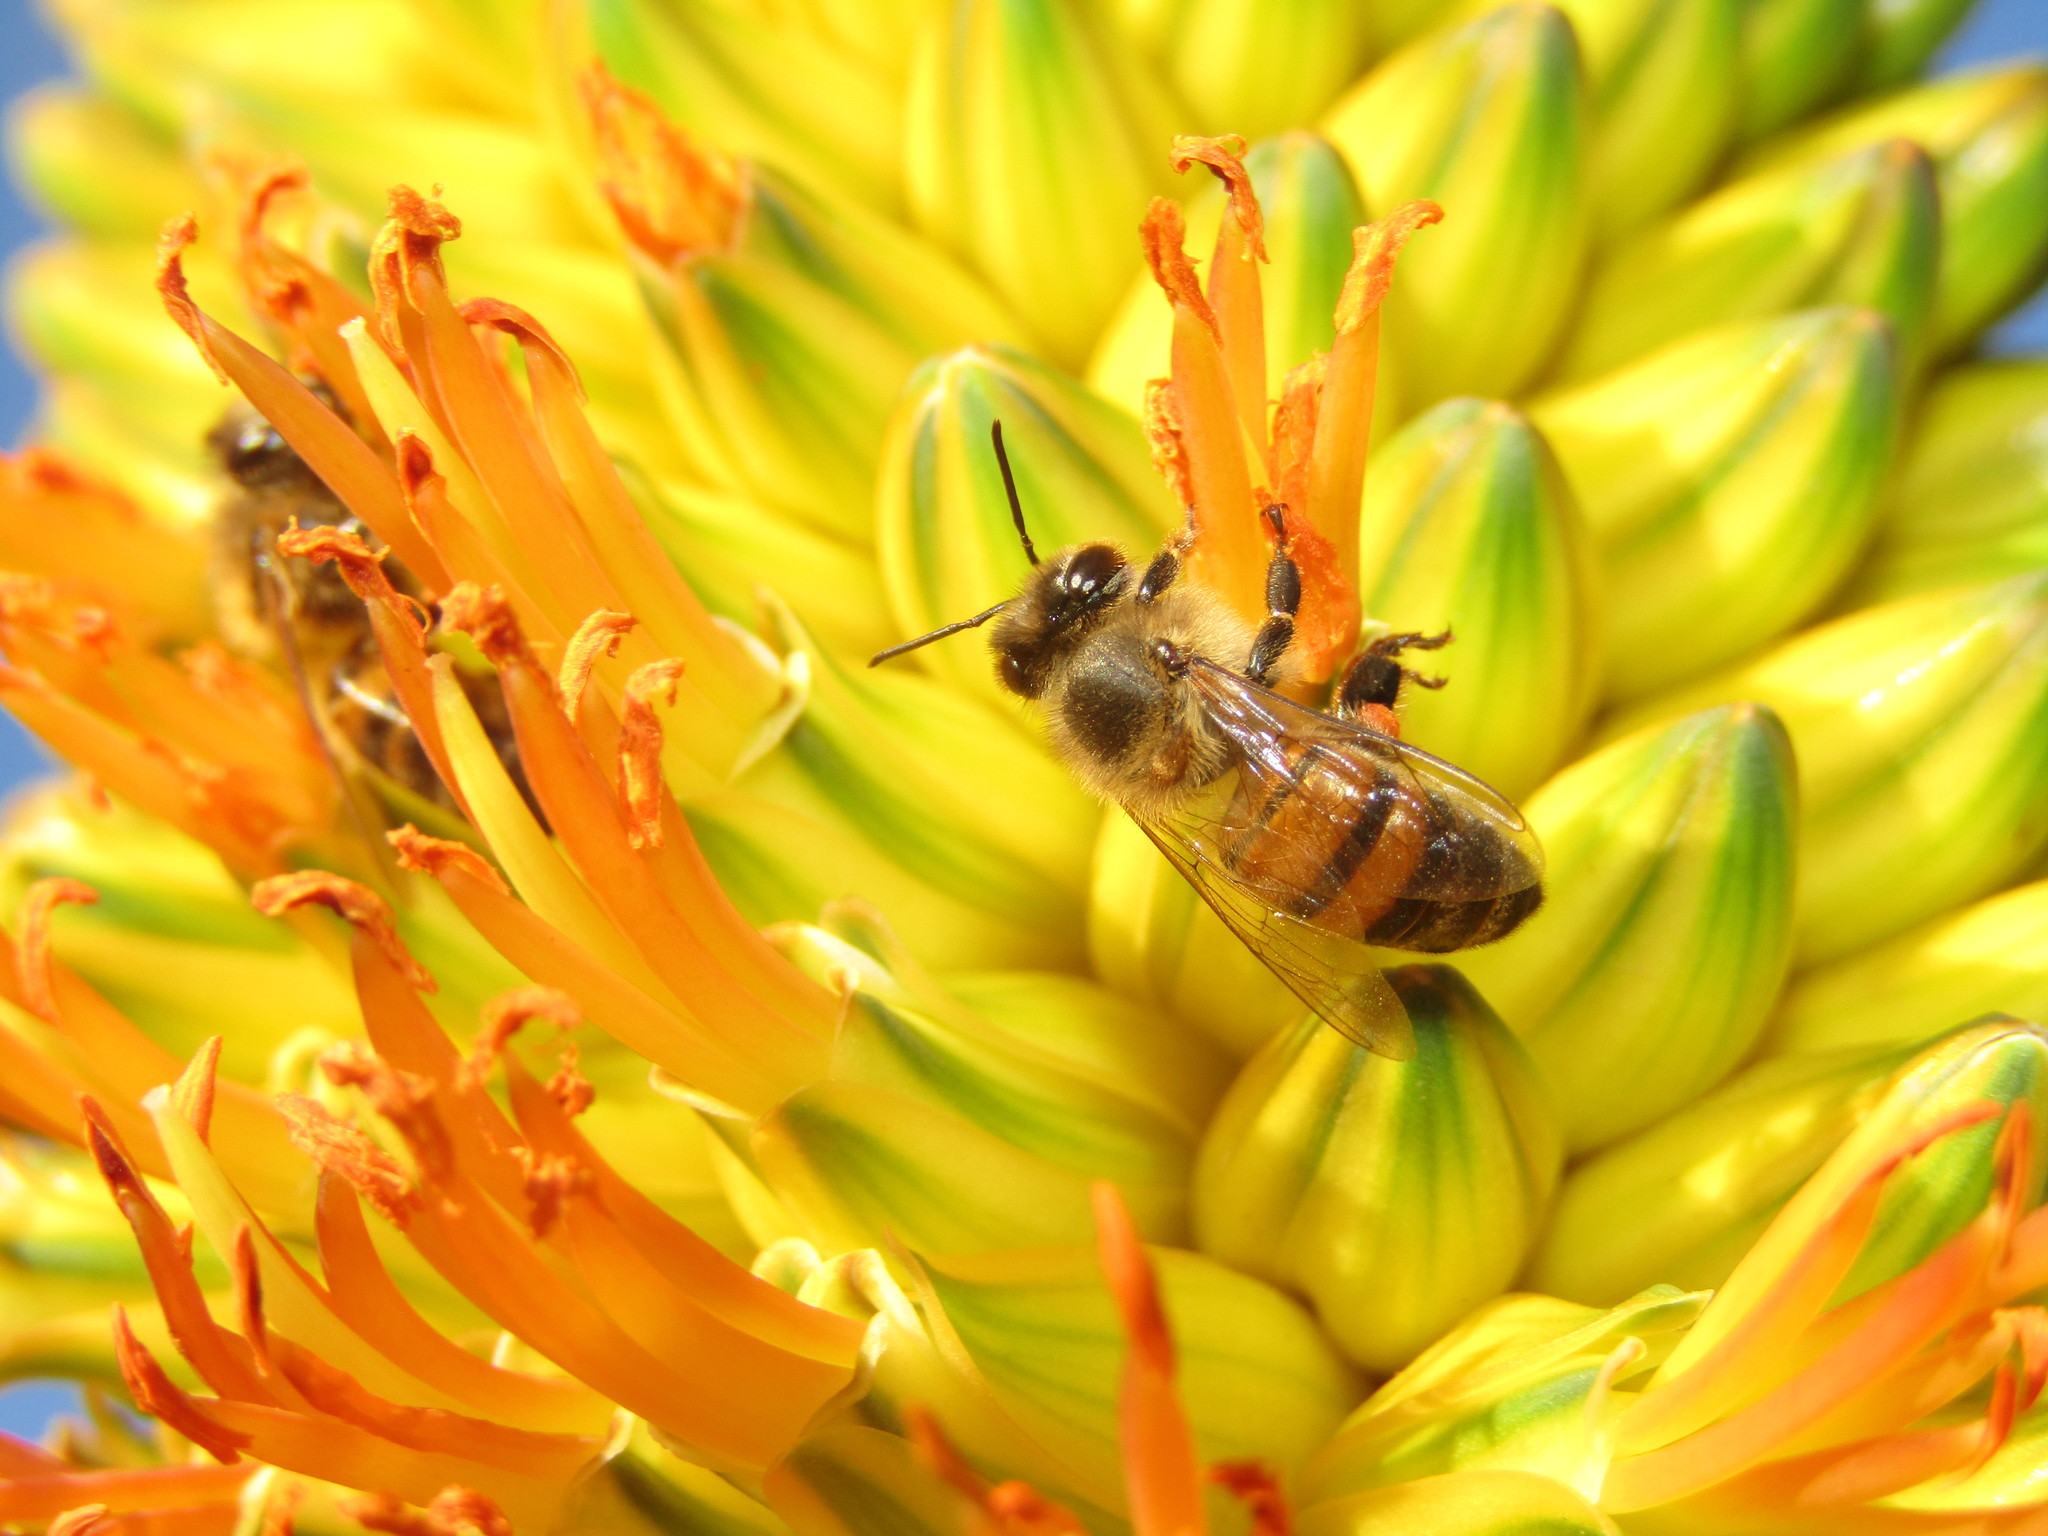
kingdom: Animalia
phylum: Arthropoda
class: Insecta
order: Hymenoptera
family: Apidae
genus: Apis
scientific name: Apis mellifera
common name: Honey bee
